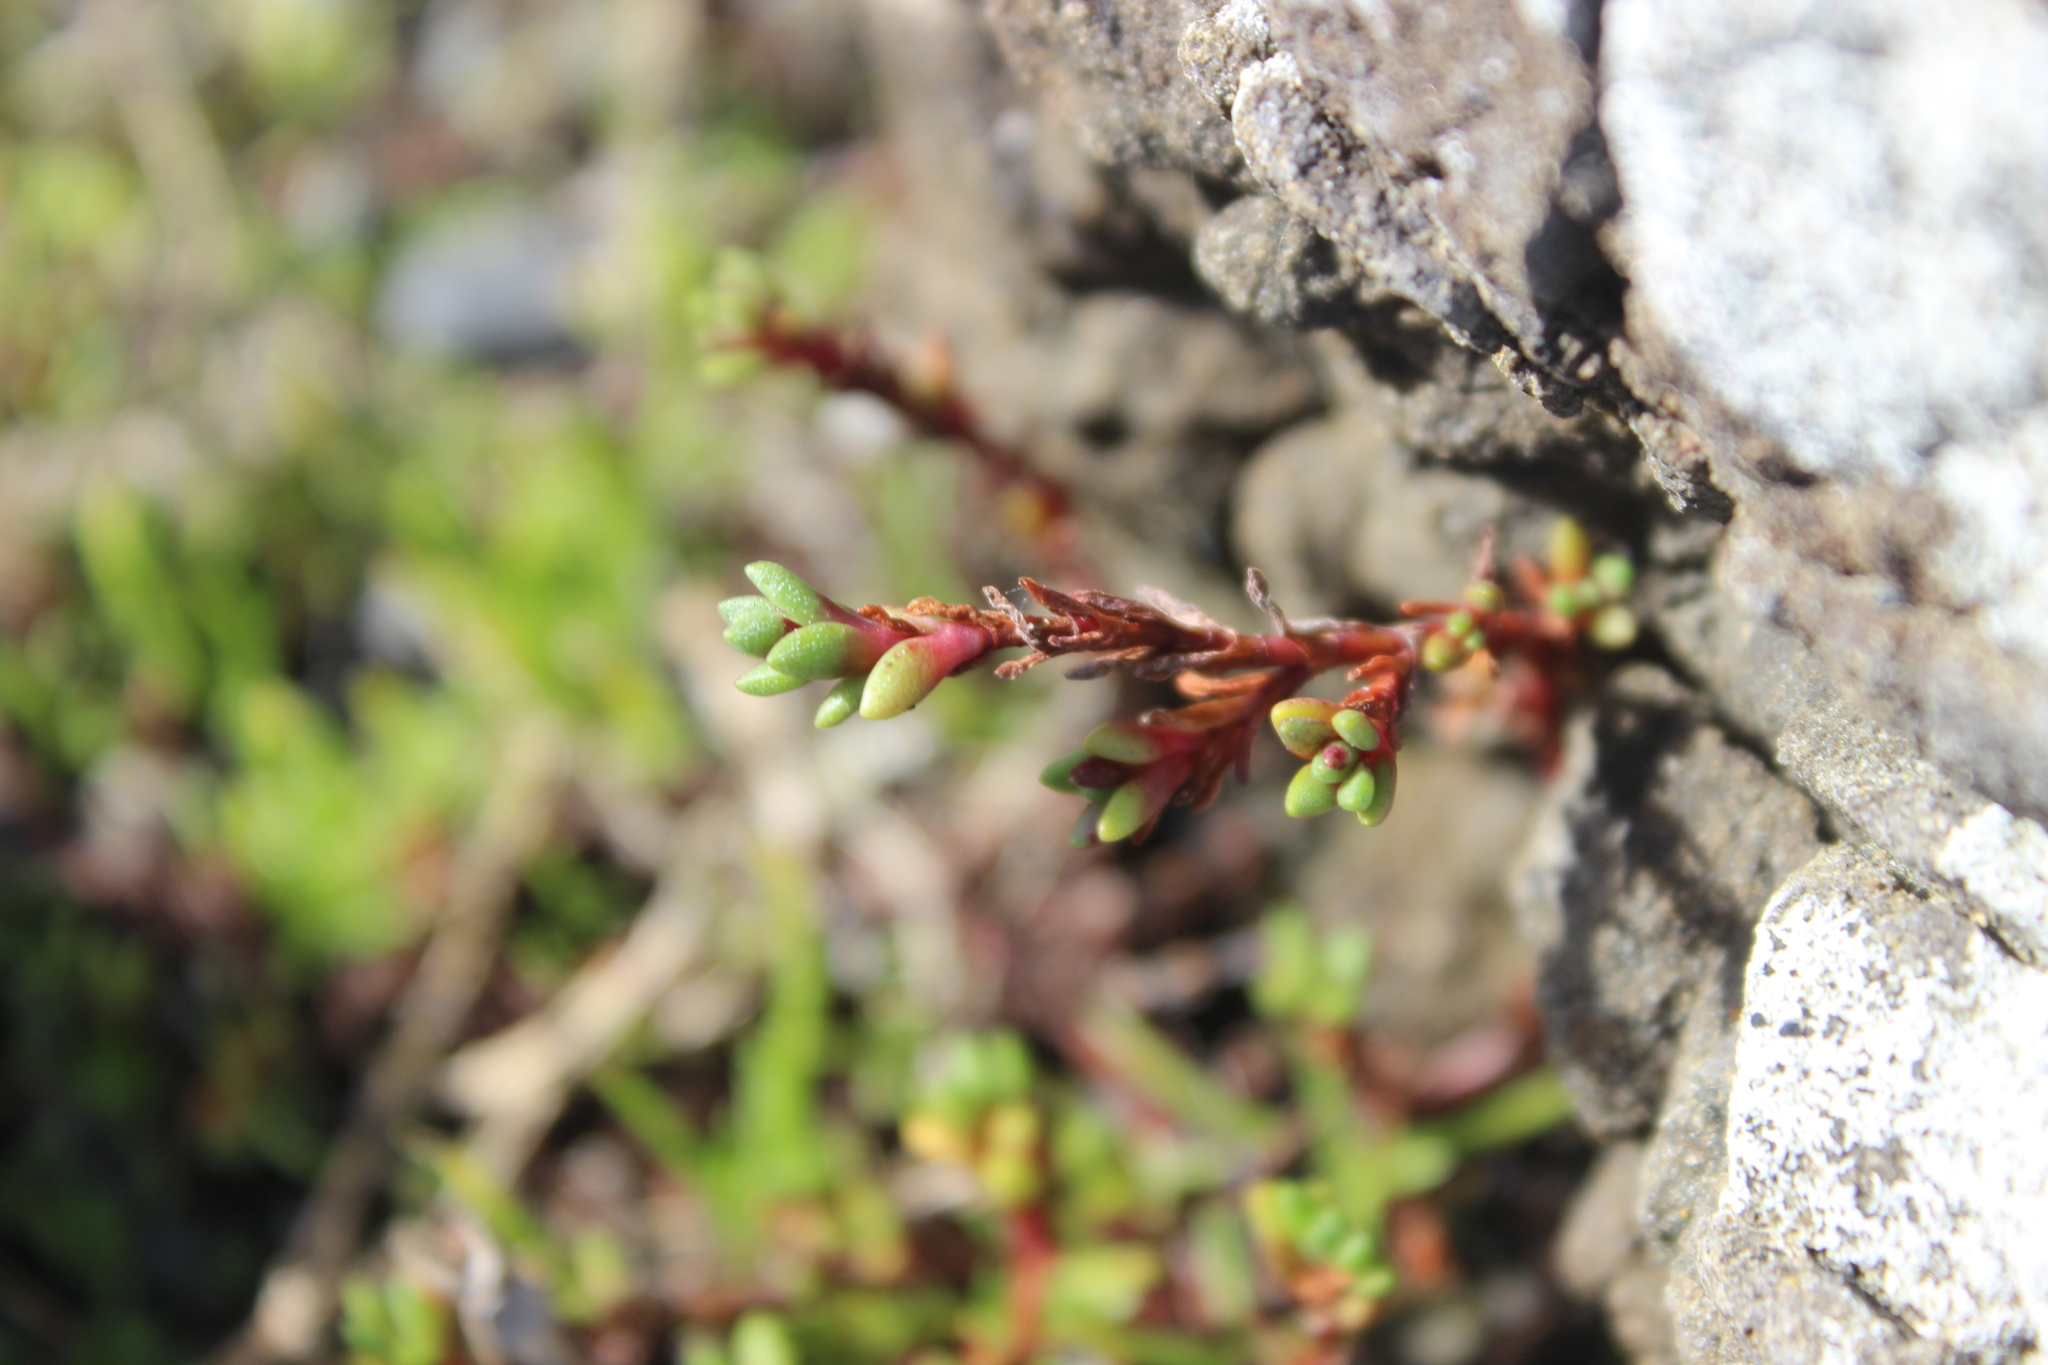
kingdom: Plantae
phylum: Tracheophyta
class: Magnoliopsida
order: Saxifragales
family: Crassulaceae
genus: Crassula
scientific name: Crassula moschata
